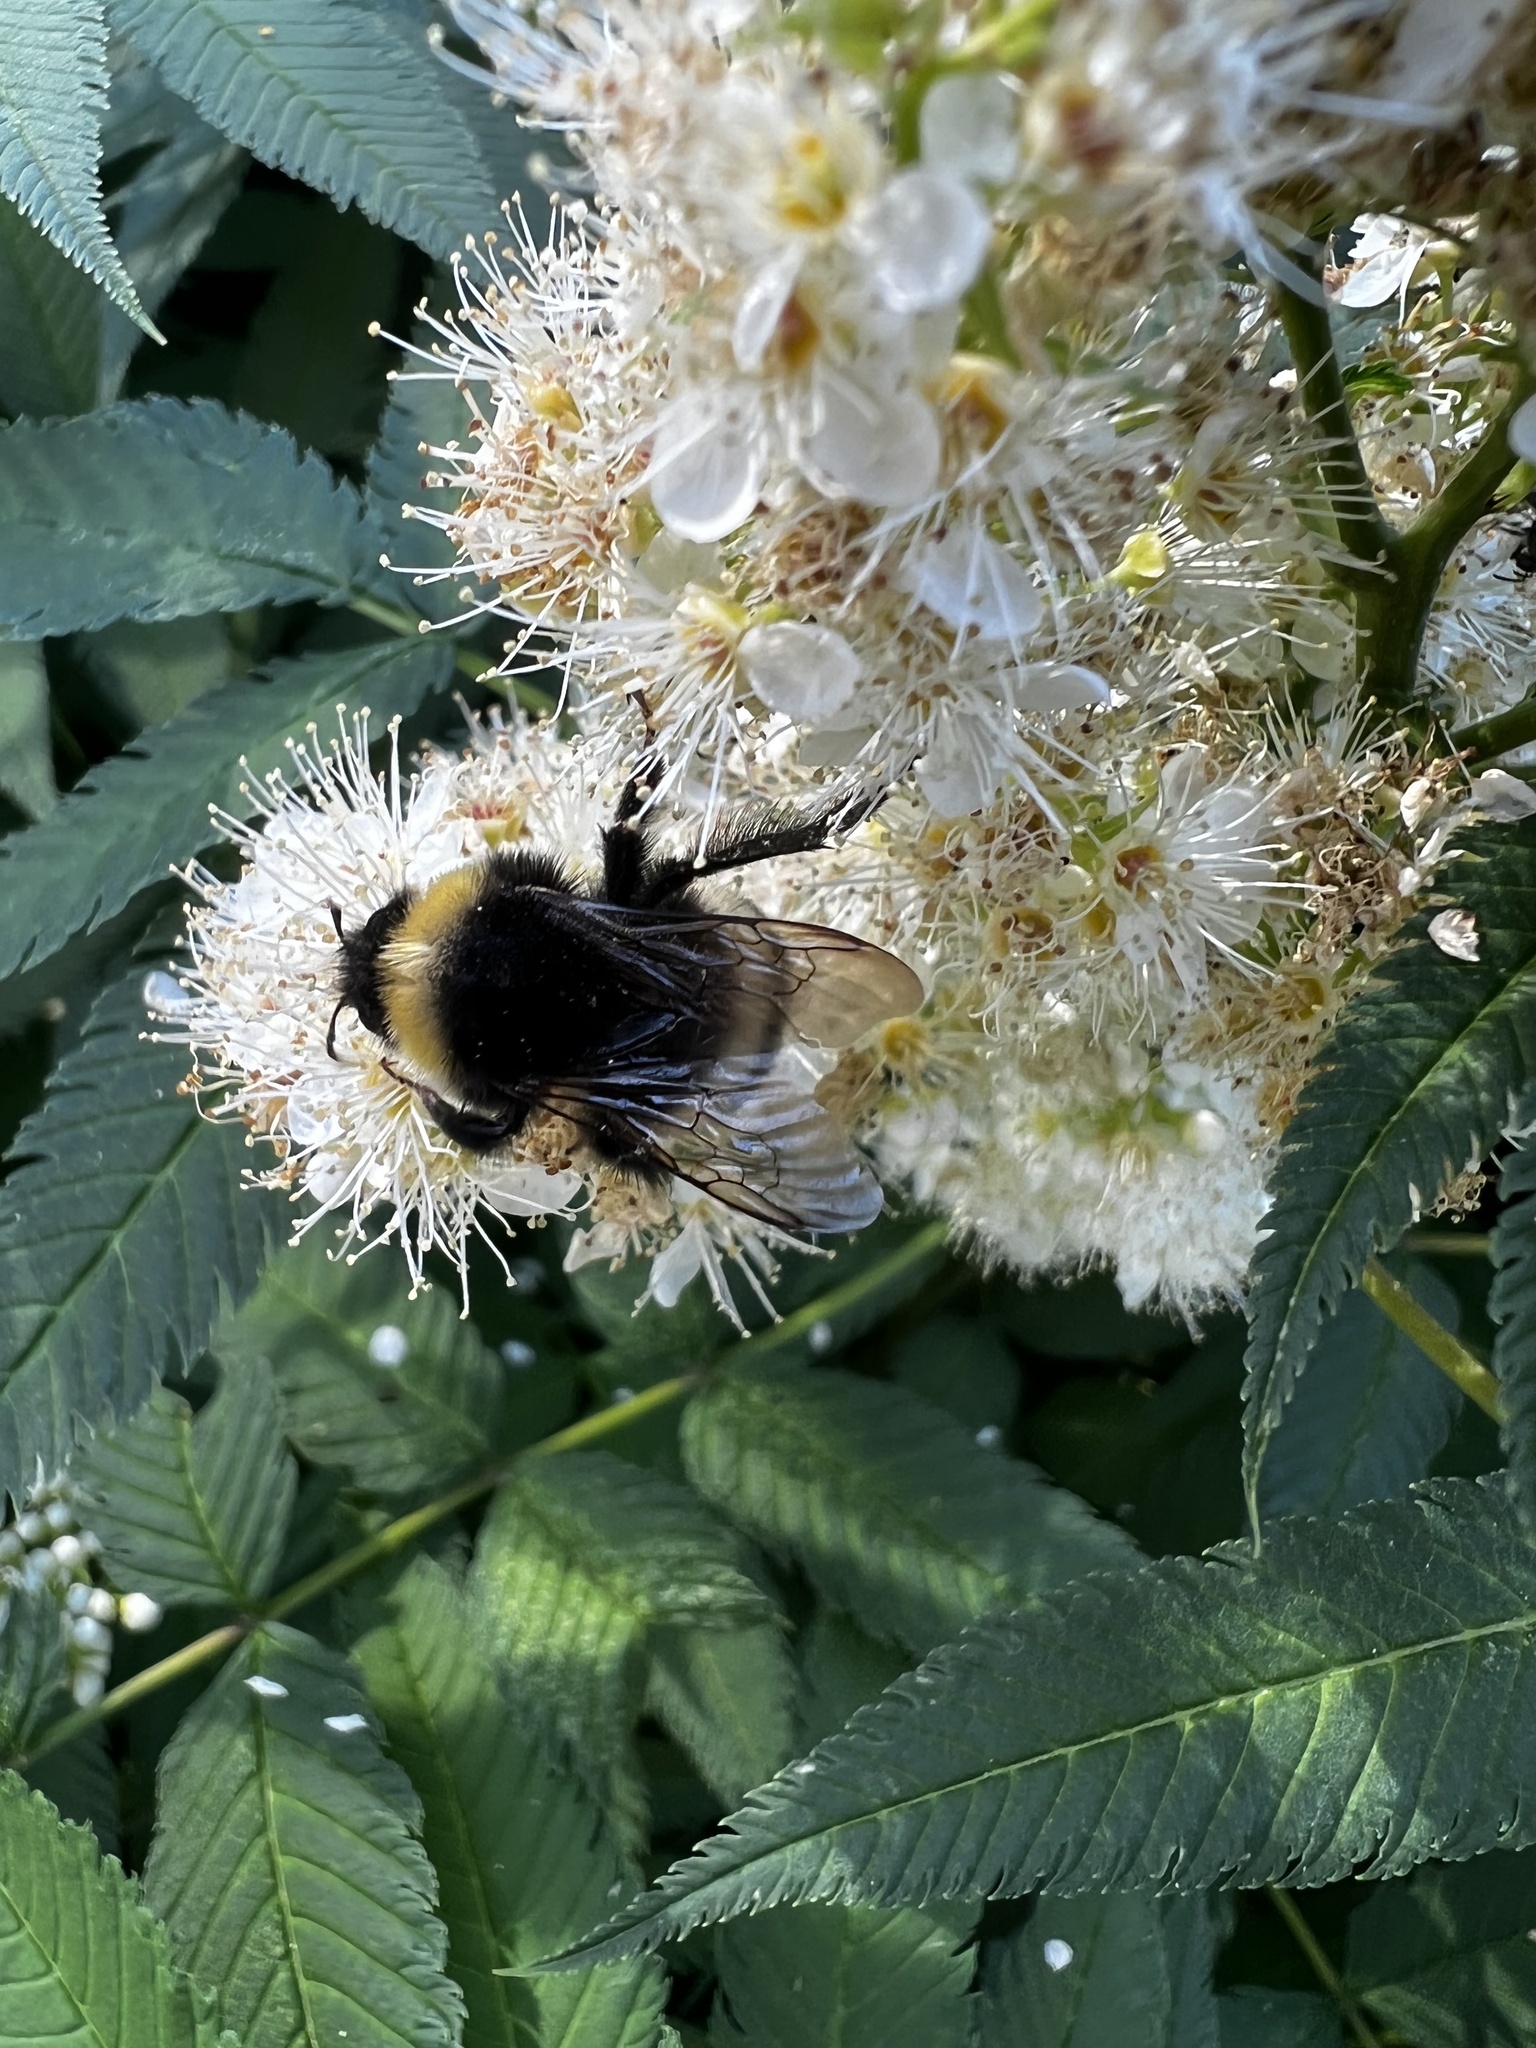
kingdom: Animalia
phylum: Arthropoda
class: Insecta
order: Hymenoptera
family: Apidae
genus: Bombus
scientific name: Bombus cryptarum
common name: Cryptic bumblebee
